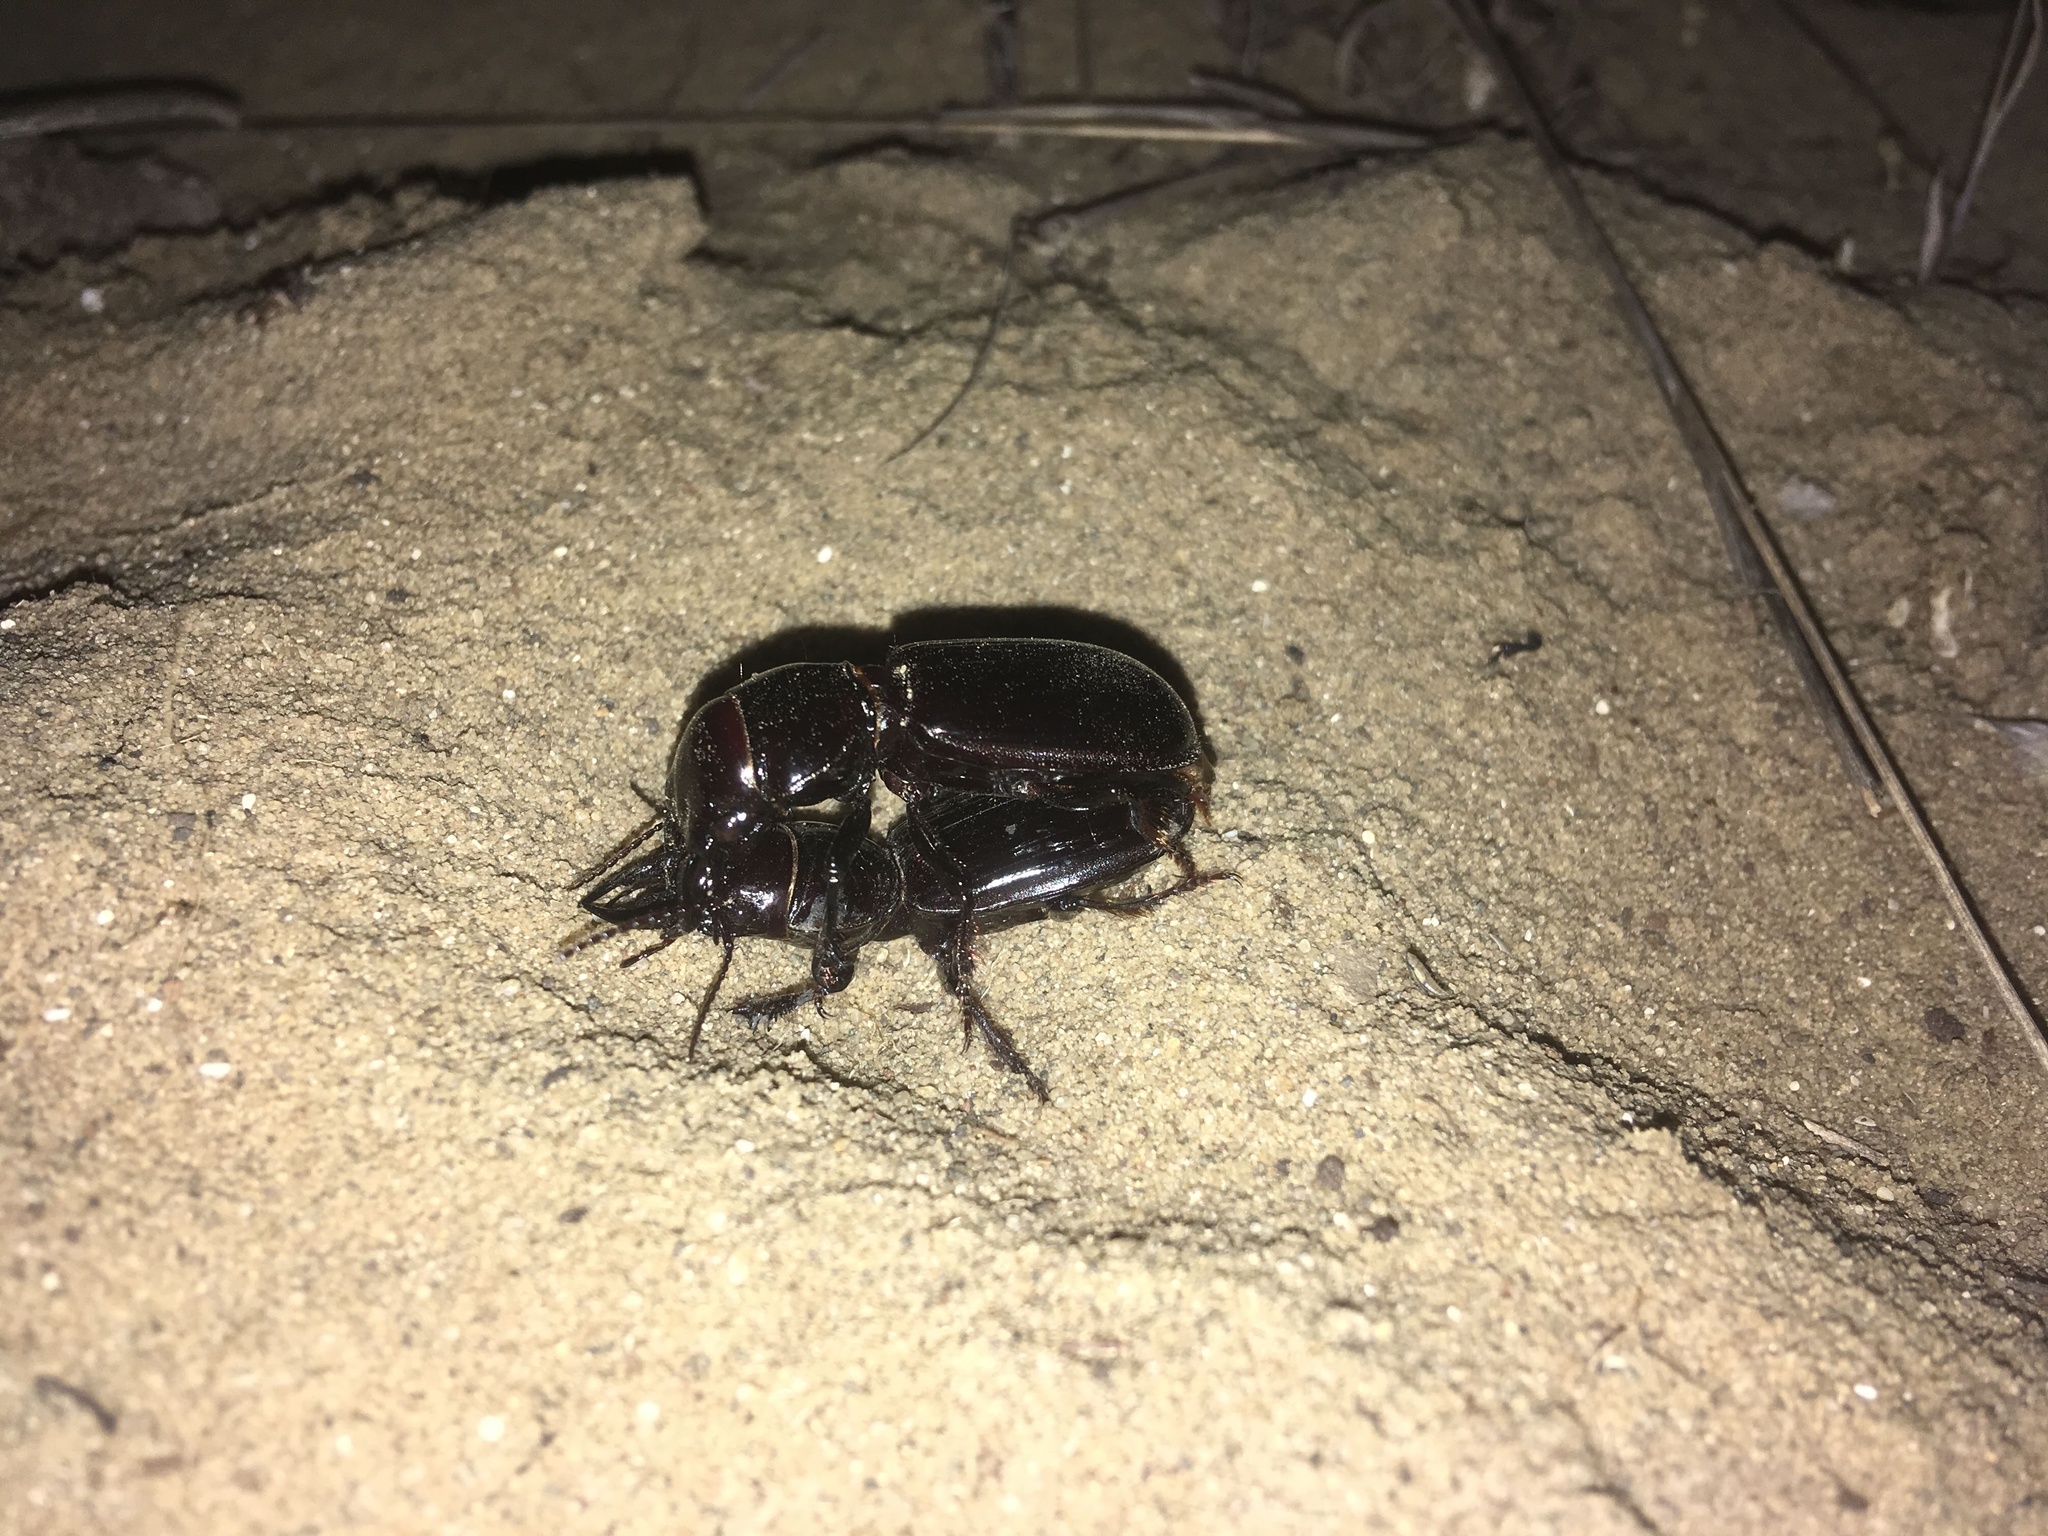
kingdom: Animalia
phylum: Arthropoda
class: Insecta
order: Coleoptera
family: Carabidae
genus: Scarites
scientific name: Scarites bucida
